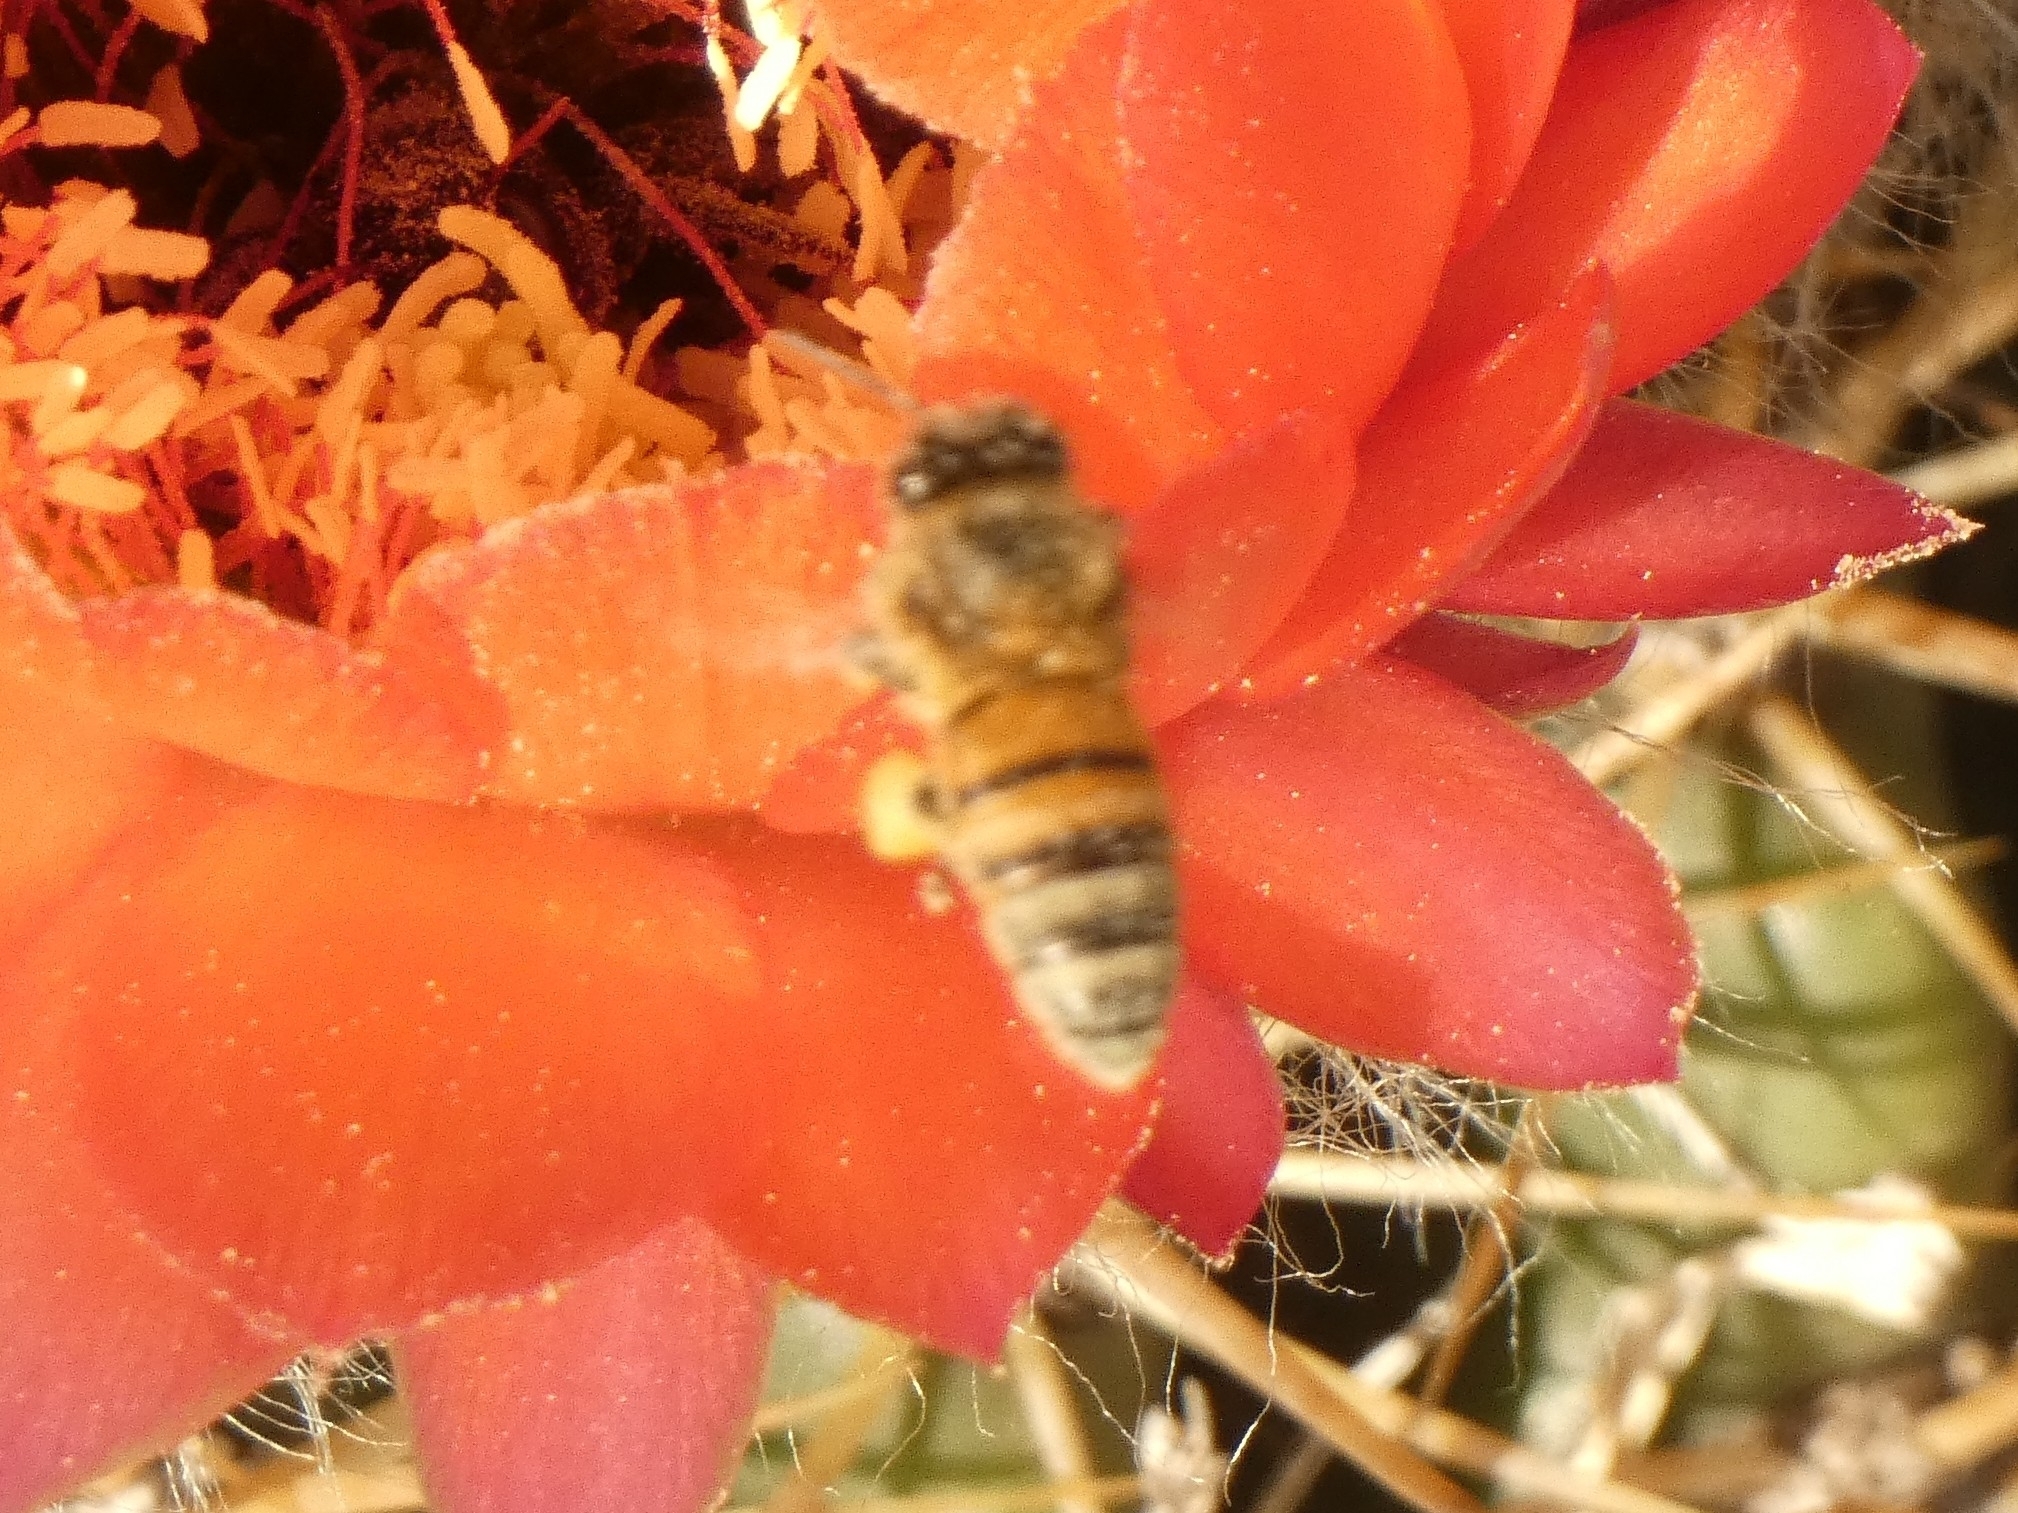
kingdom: Animalia
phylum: Arthropoda
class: Insecta
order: Hymenoptera
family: Apidae
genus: Apis
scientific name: Apis mellifera
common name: Honey bee
